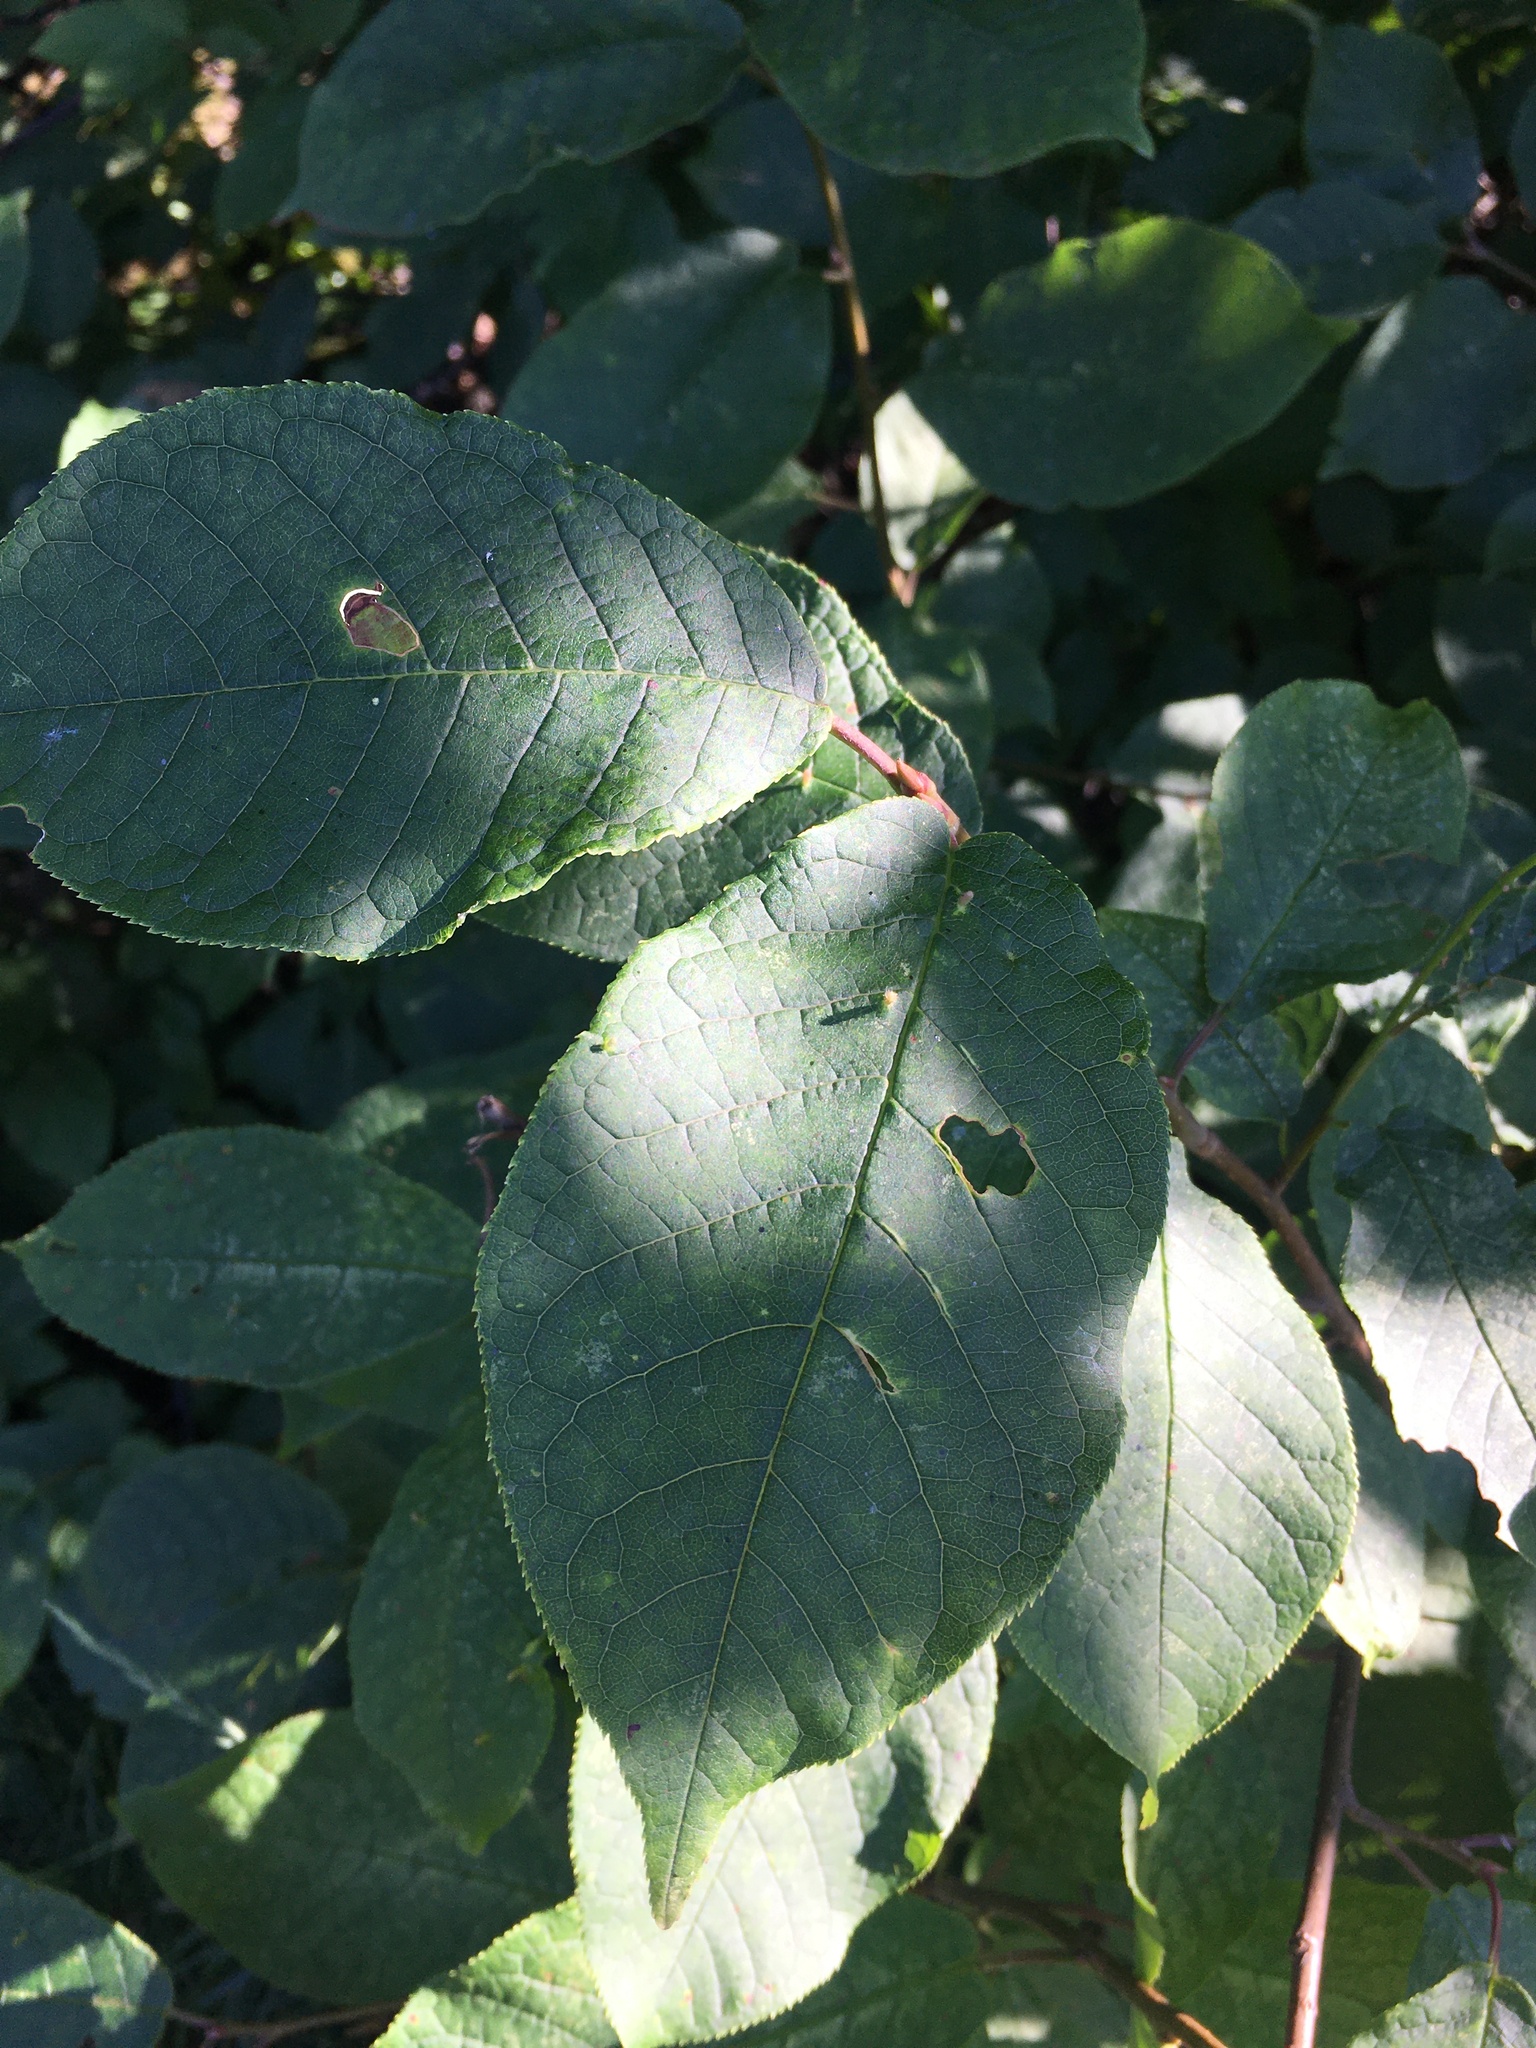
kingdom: Plantae
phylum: Tracheophyta
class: Magnoliopsida
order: Rosales
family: Rosaceae
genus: Prunus
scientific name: Prunus padus
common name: Bird cherry
